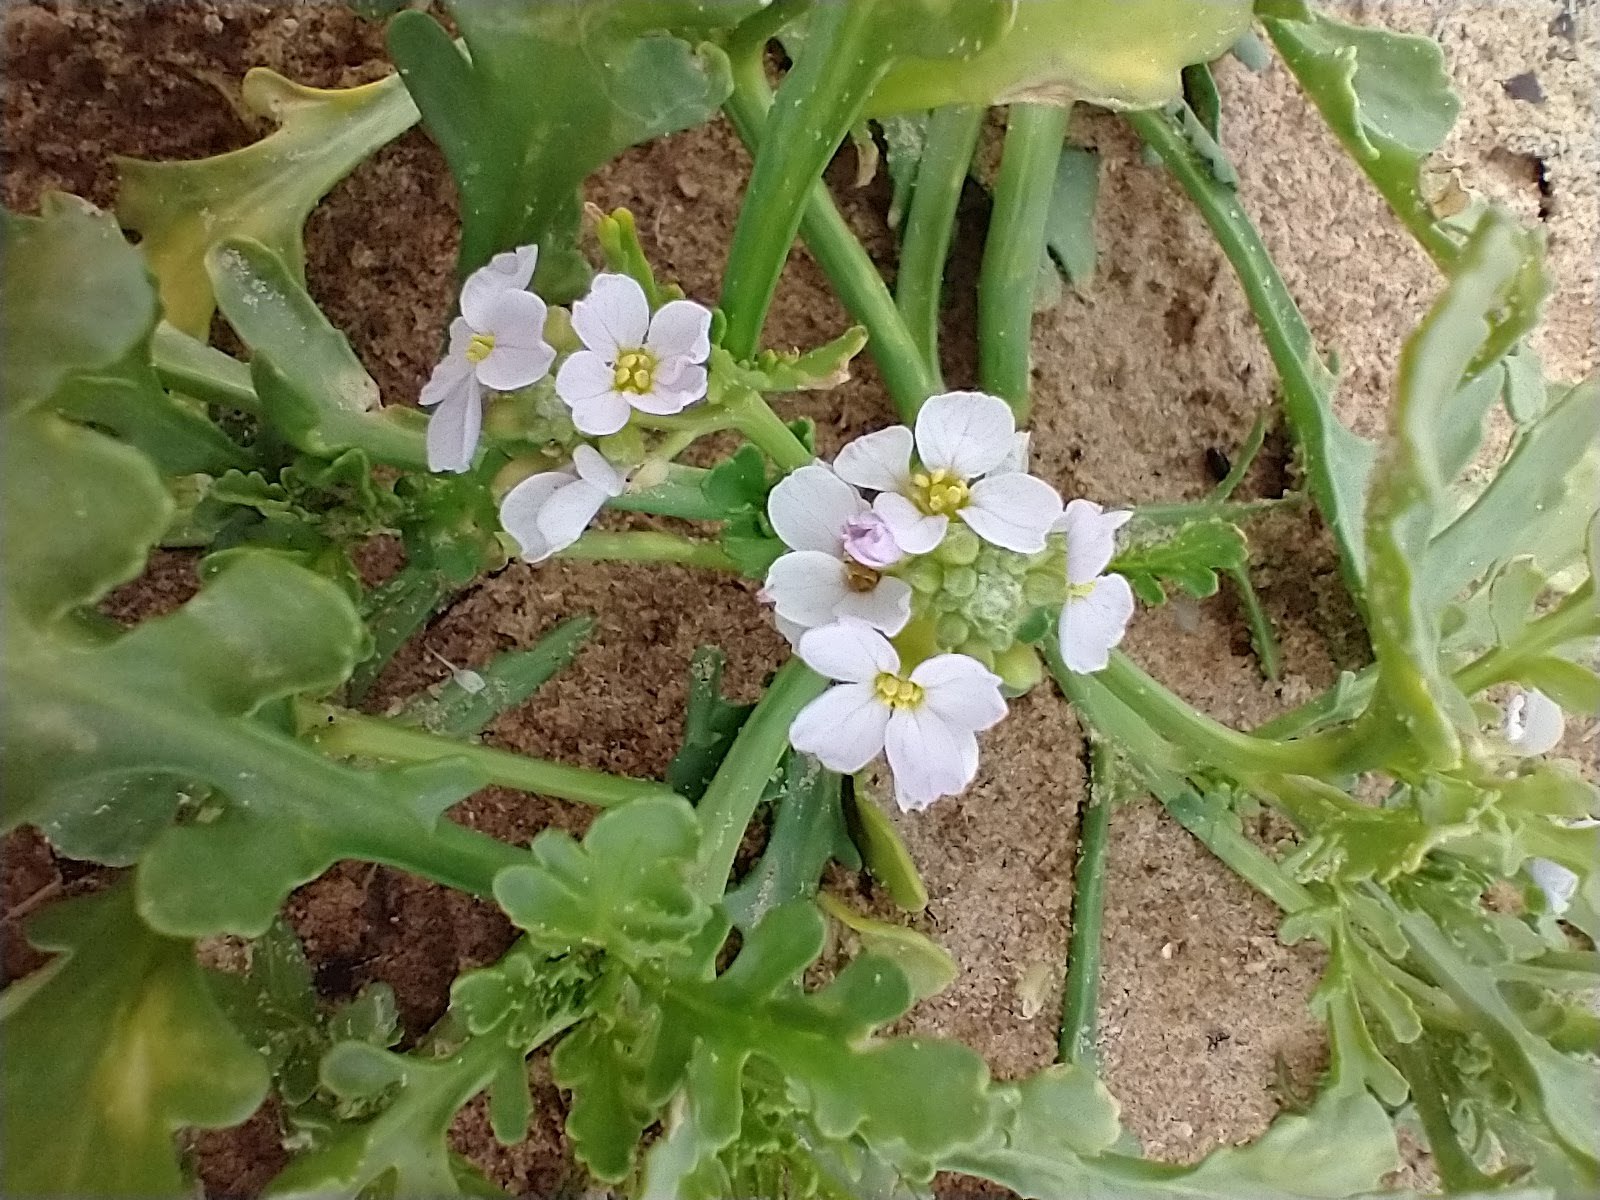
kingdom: Plantae
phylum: Tracheophyta
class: Magnoliopsida
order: Brassicales
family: Brassicaceae
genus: Cakile
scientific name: Cakile maritima
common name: Sea rocket
